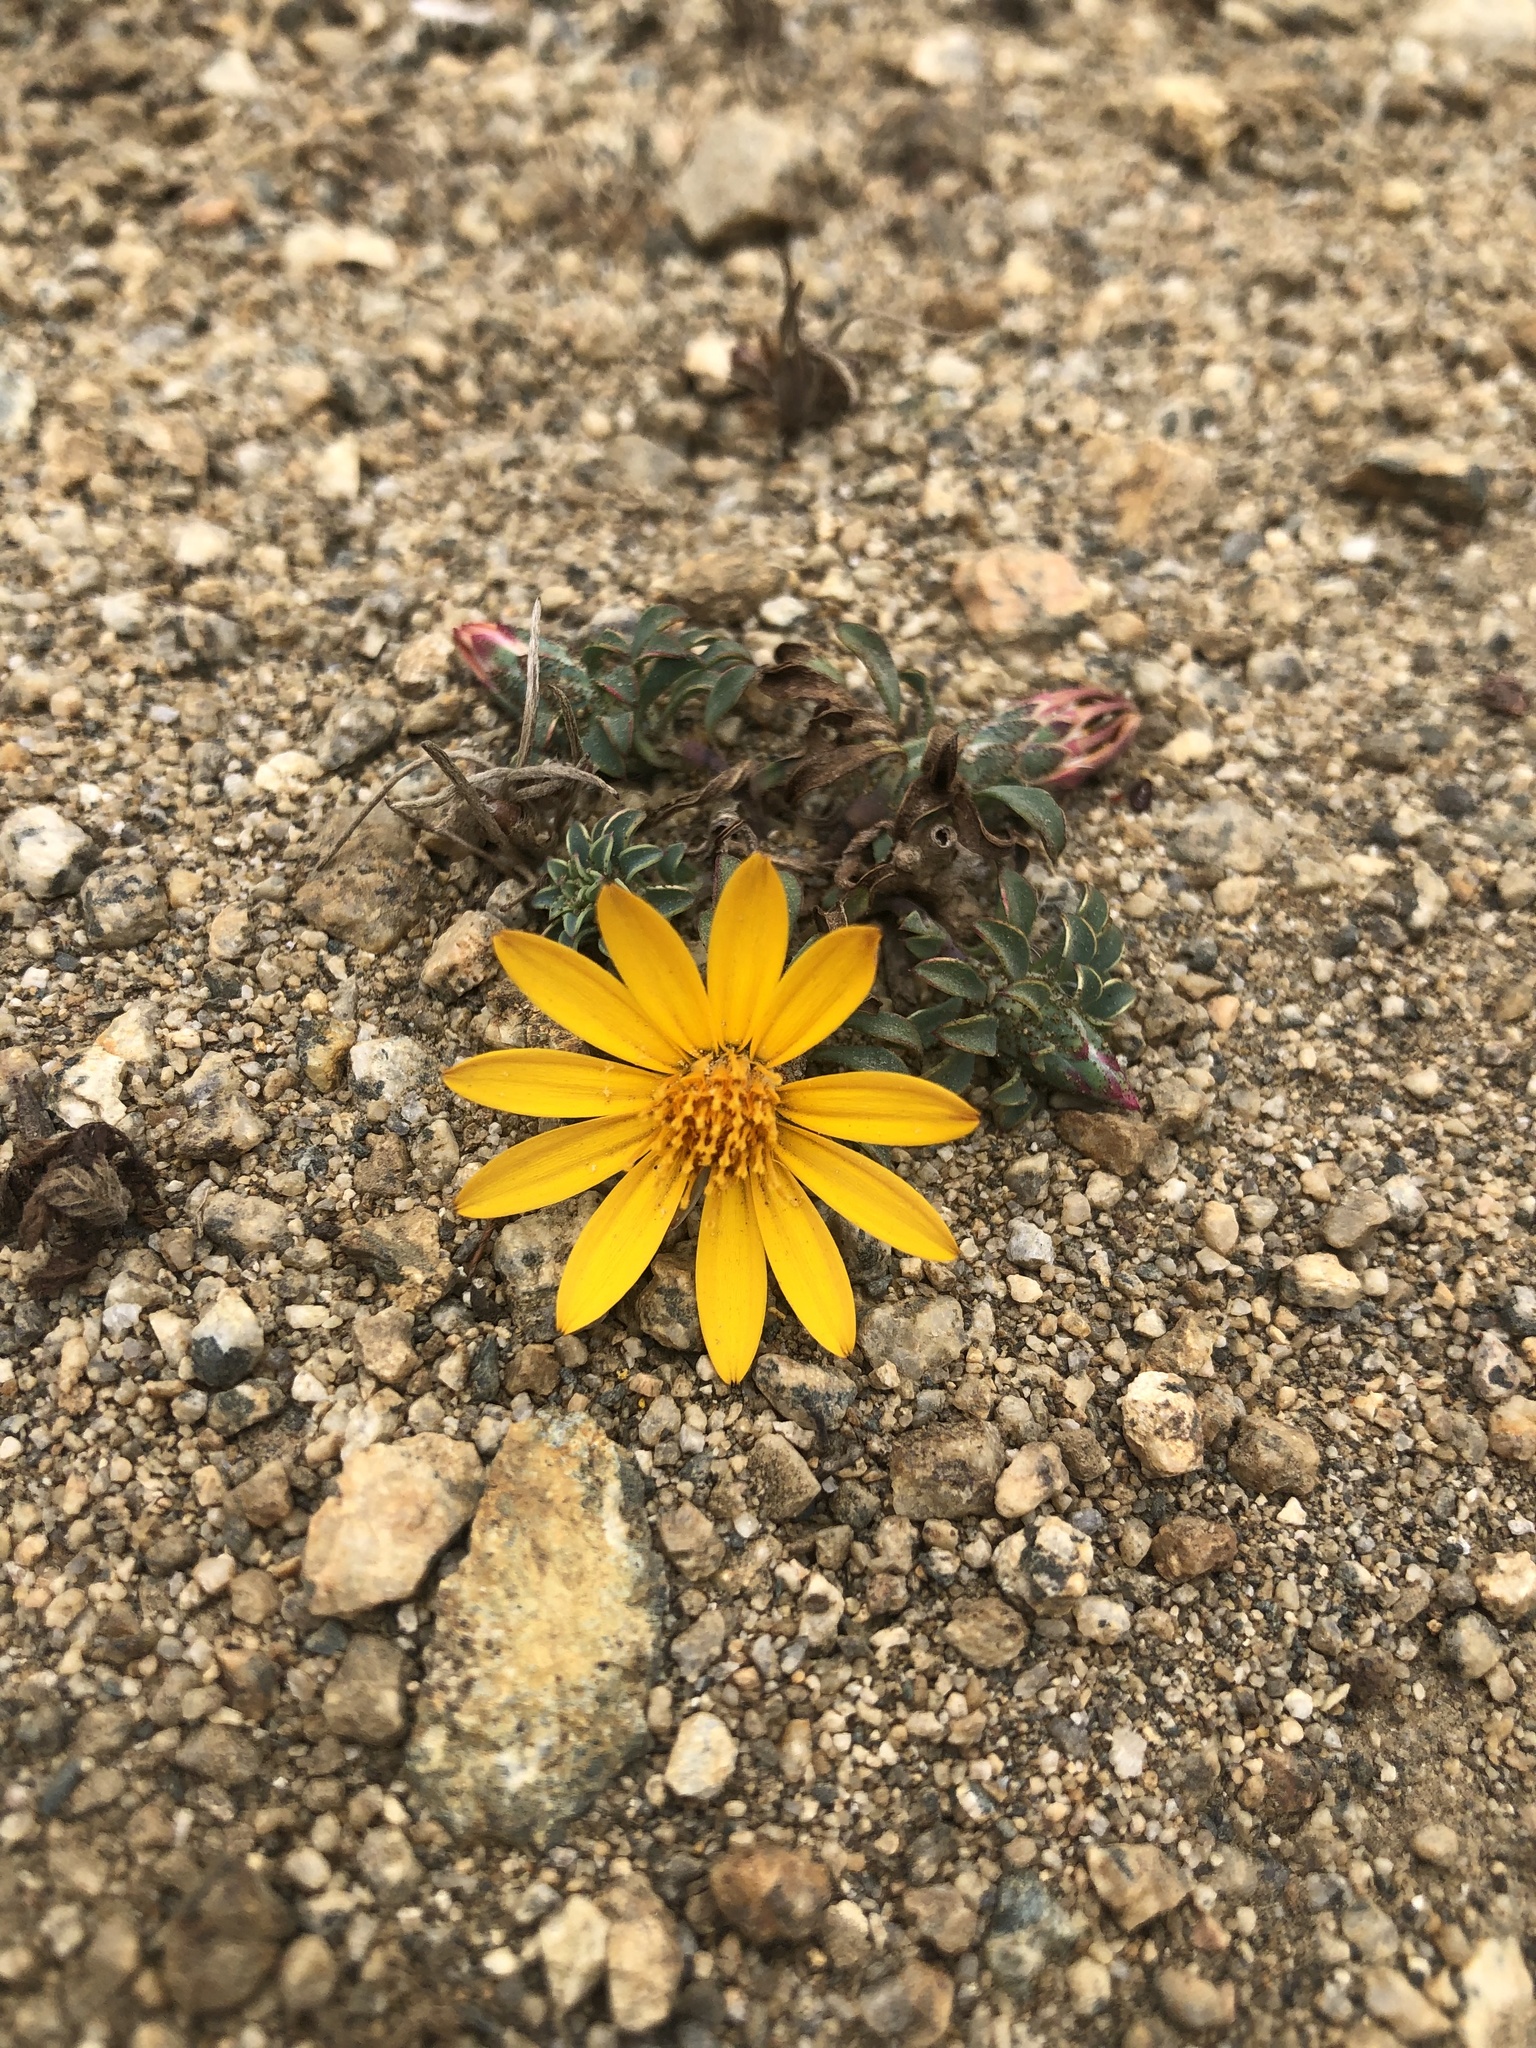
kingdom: Plantae
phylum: Tracheophyta
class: Magnoliopsida
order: Asterales
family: Asteraceae
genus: Chaetanthera
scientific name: Chaetanthera frayjorgensis
